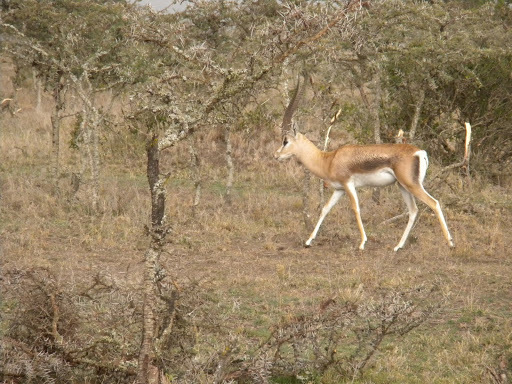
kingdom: Animalia
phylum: Chordata
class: Mammalia
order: Artiodactyla
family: Bovidae
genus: Nanger
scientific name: Nanger granti
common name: Grant's gazelle
